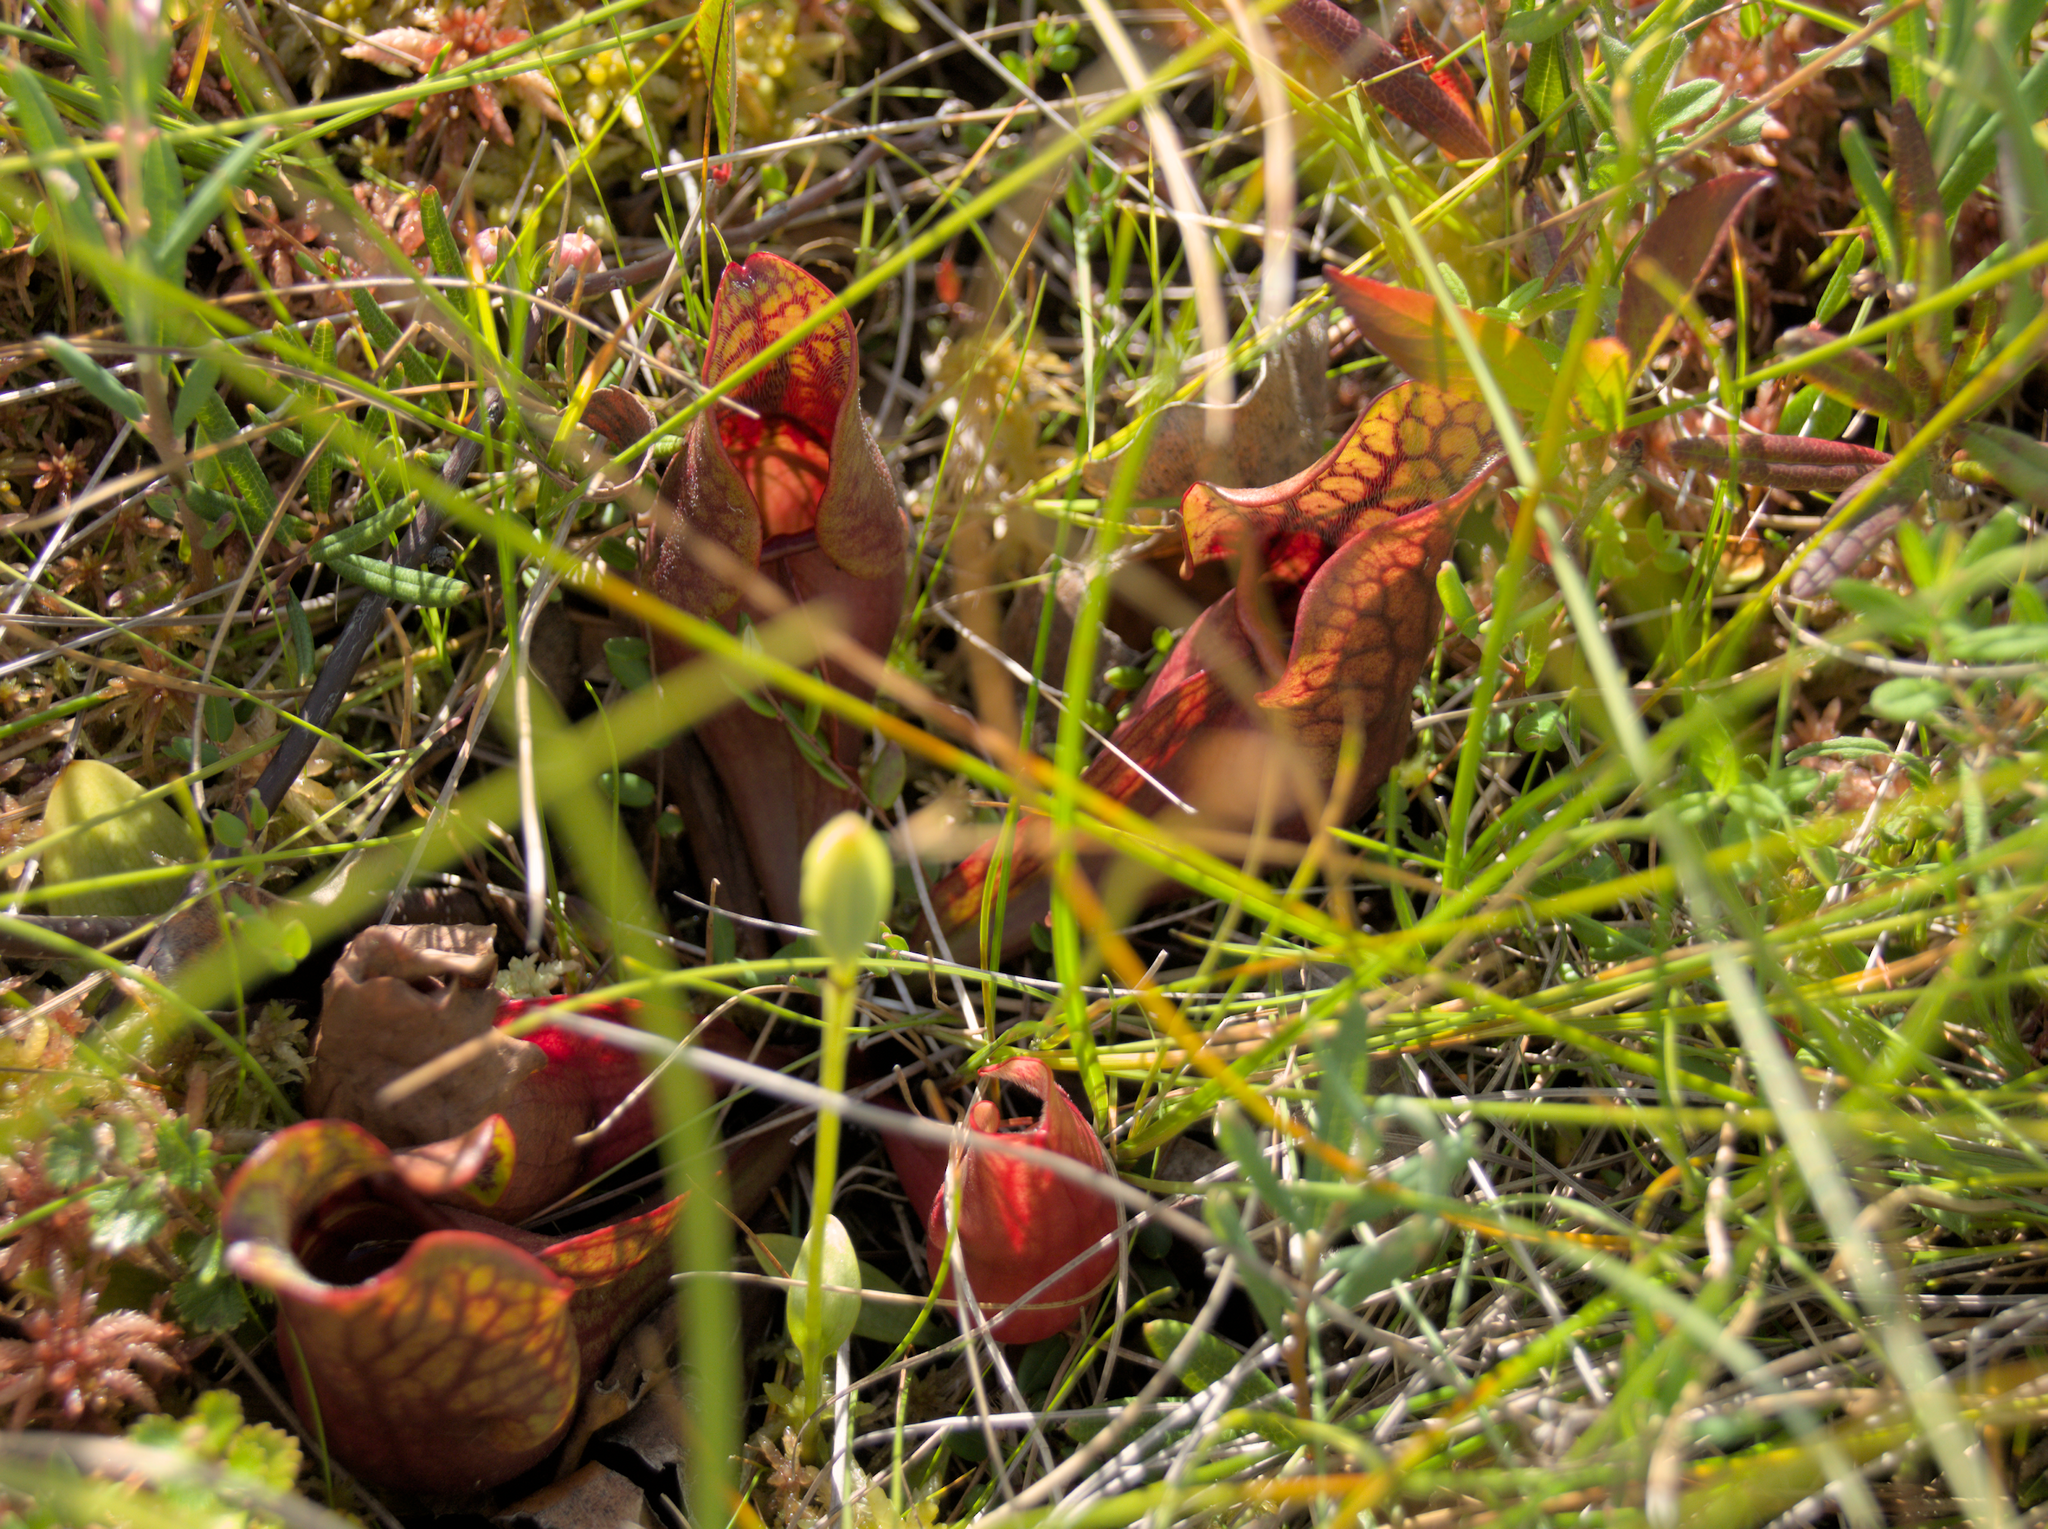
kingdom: Plantae
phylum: Tracheophyta
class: Magnoliopsida
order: Ericales
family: Sarraceniaceae
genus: Sarracenia
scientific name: Sarracenia purpurea
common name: Pitcherplant
